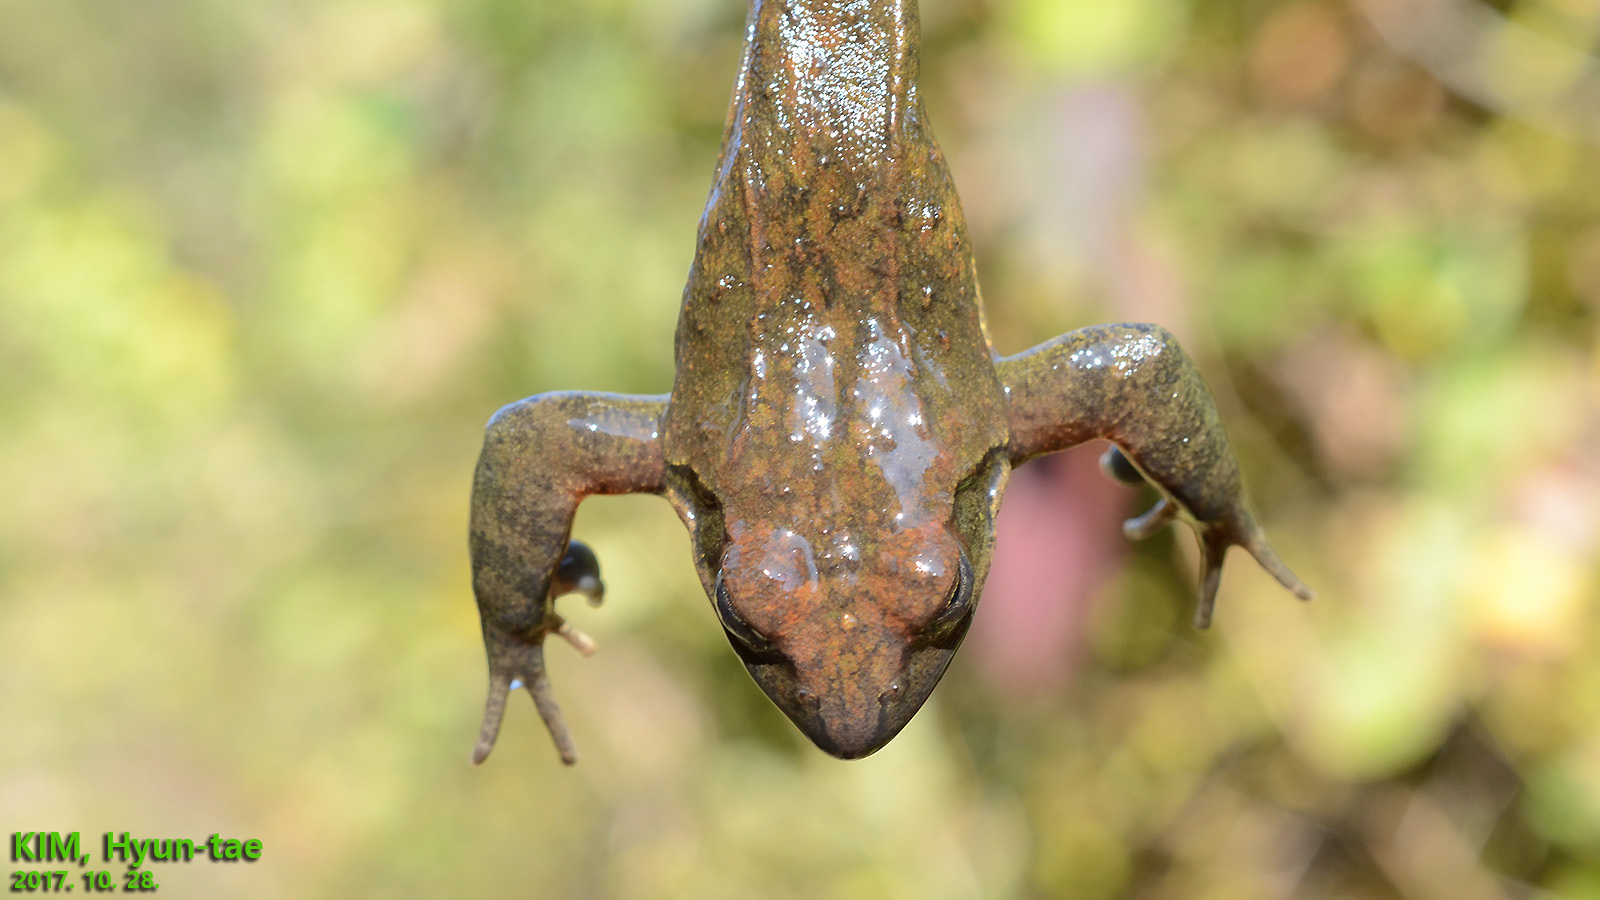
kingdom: Animalia
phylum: Chordata
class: Amphibia
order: Anura
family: Ranidae
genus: Rana
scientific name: Rana huanrenensis
